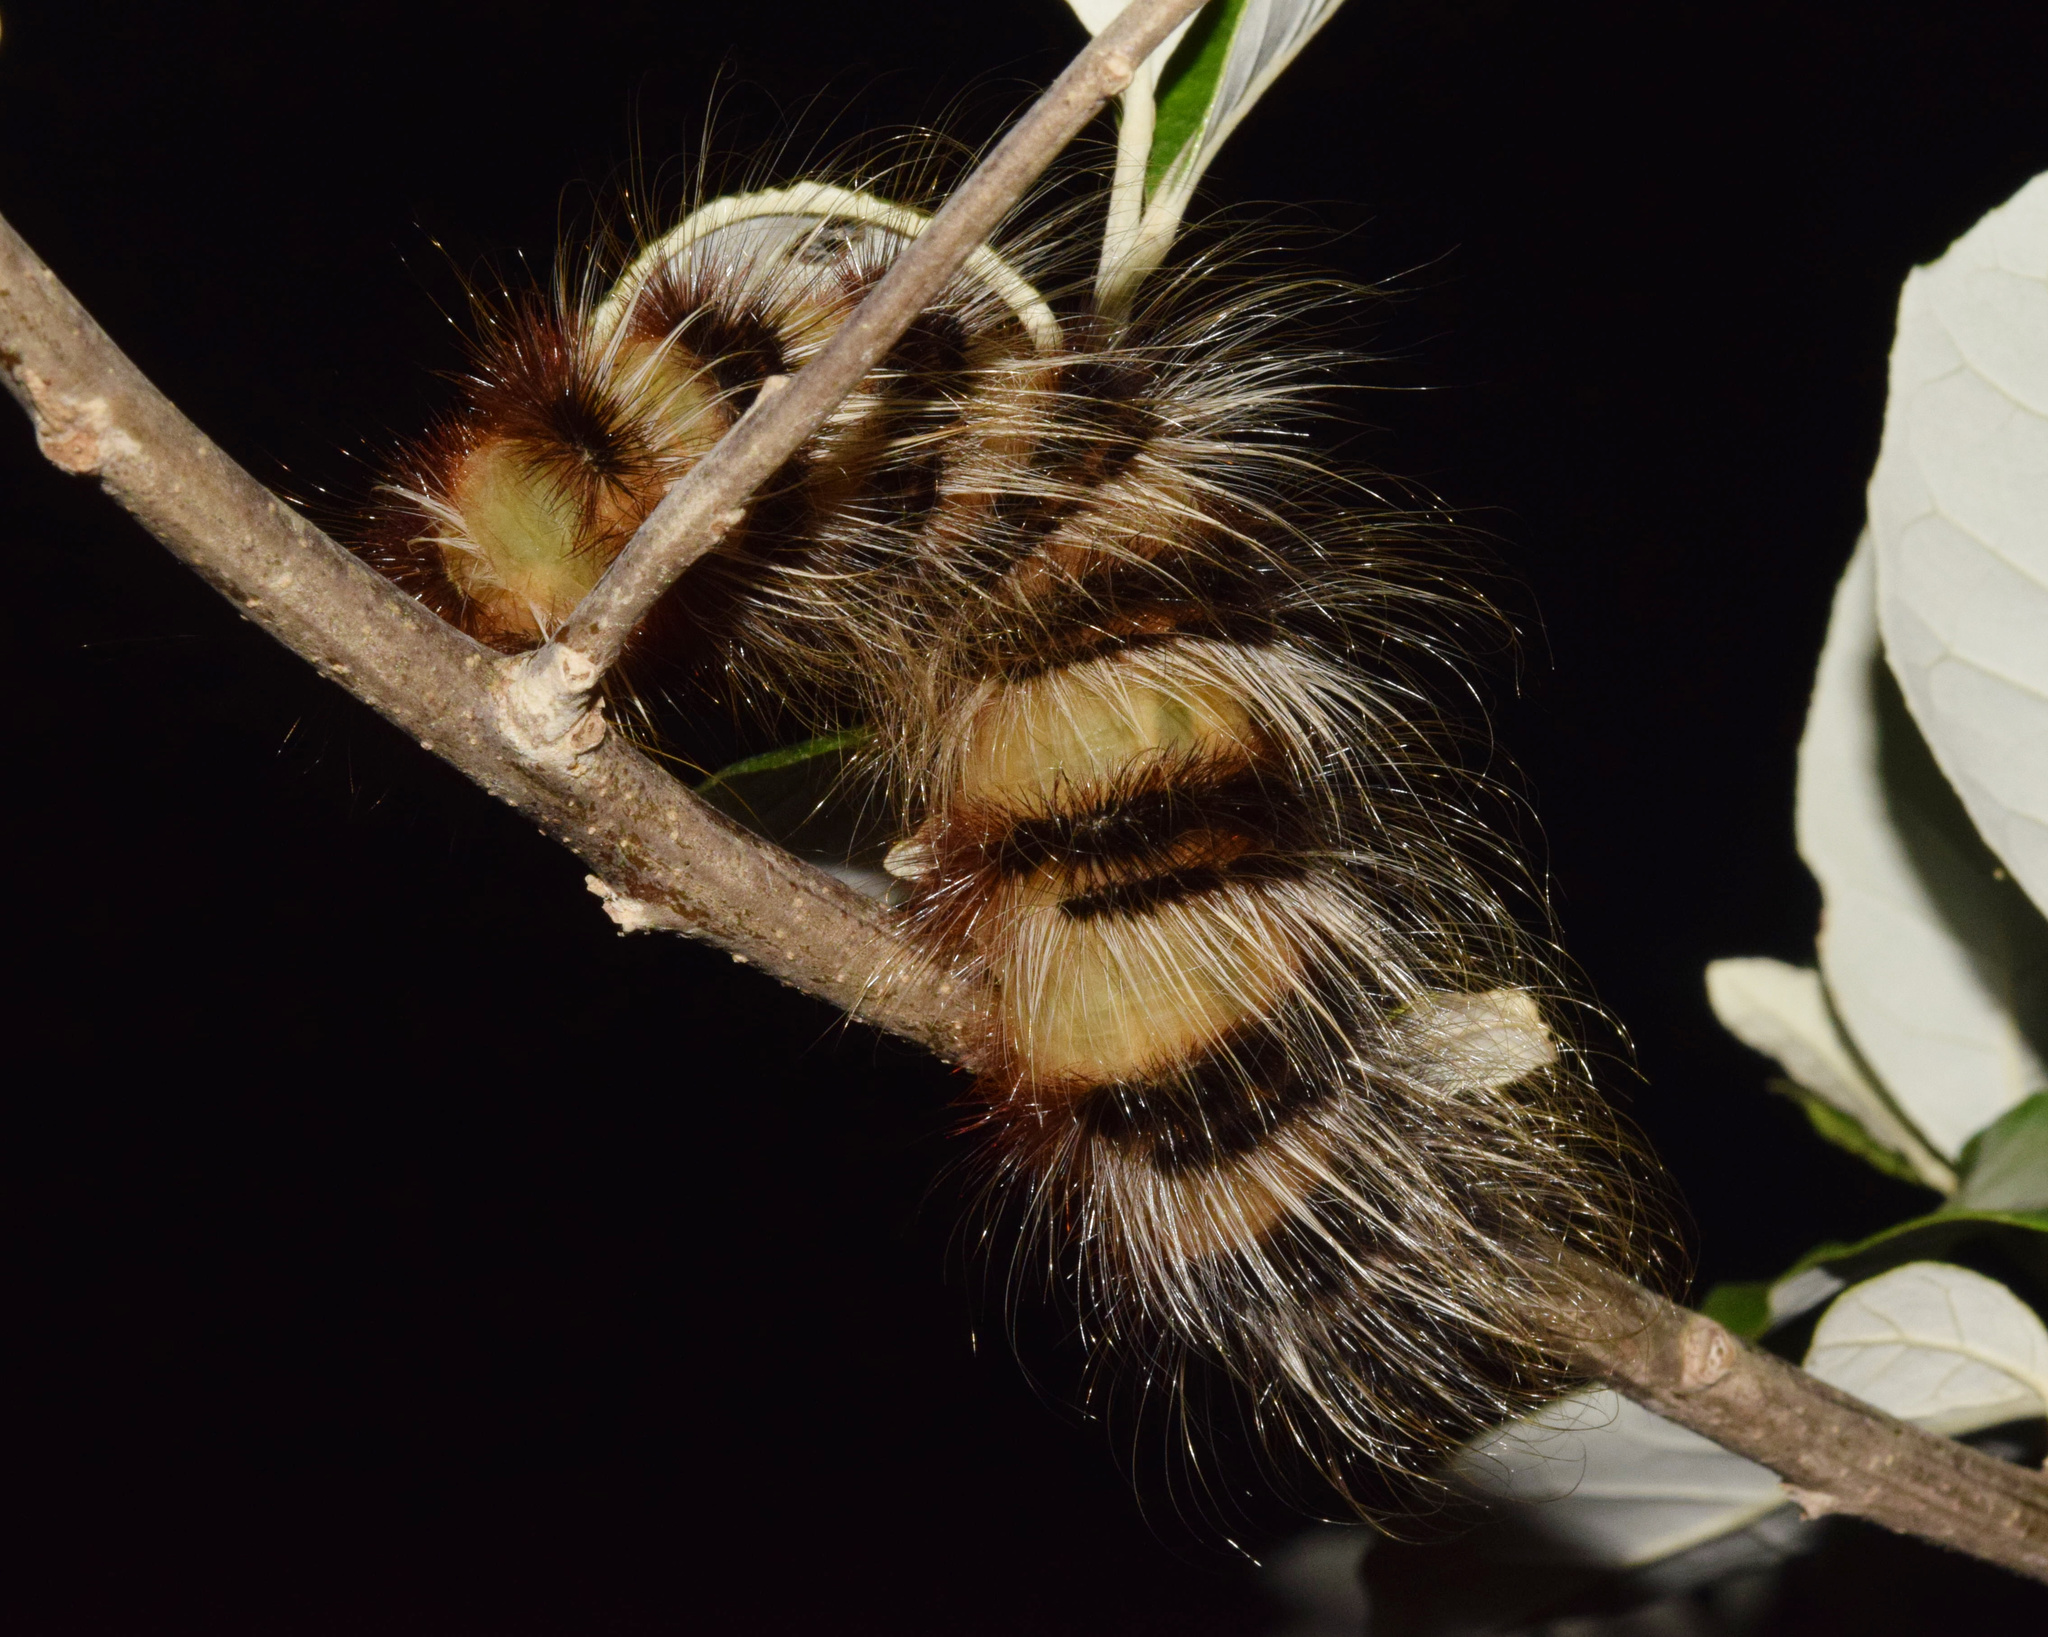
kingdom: Animalia
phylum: Arthropoda
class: Insecta
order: Lepidoptera
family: Eupterotidae
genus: Striphnopteryx
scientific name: Striphnopteryx edulis
